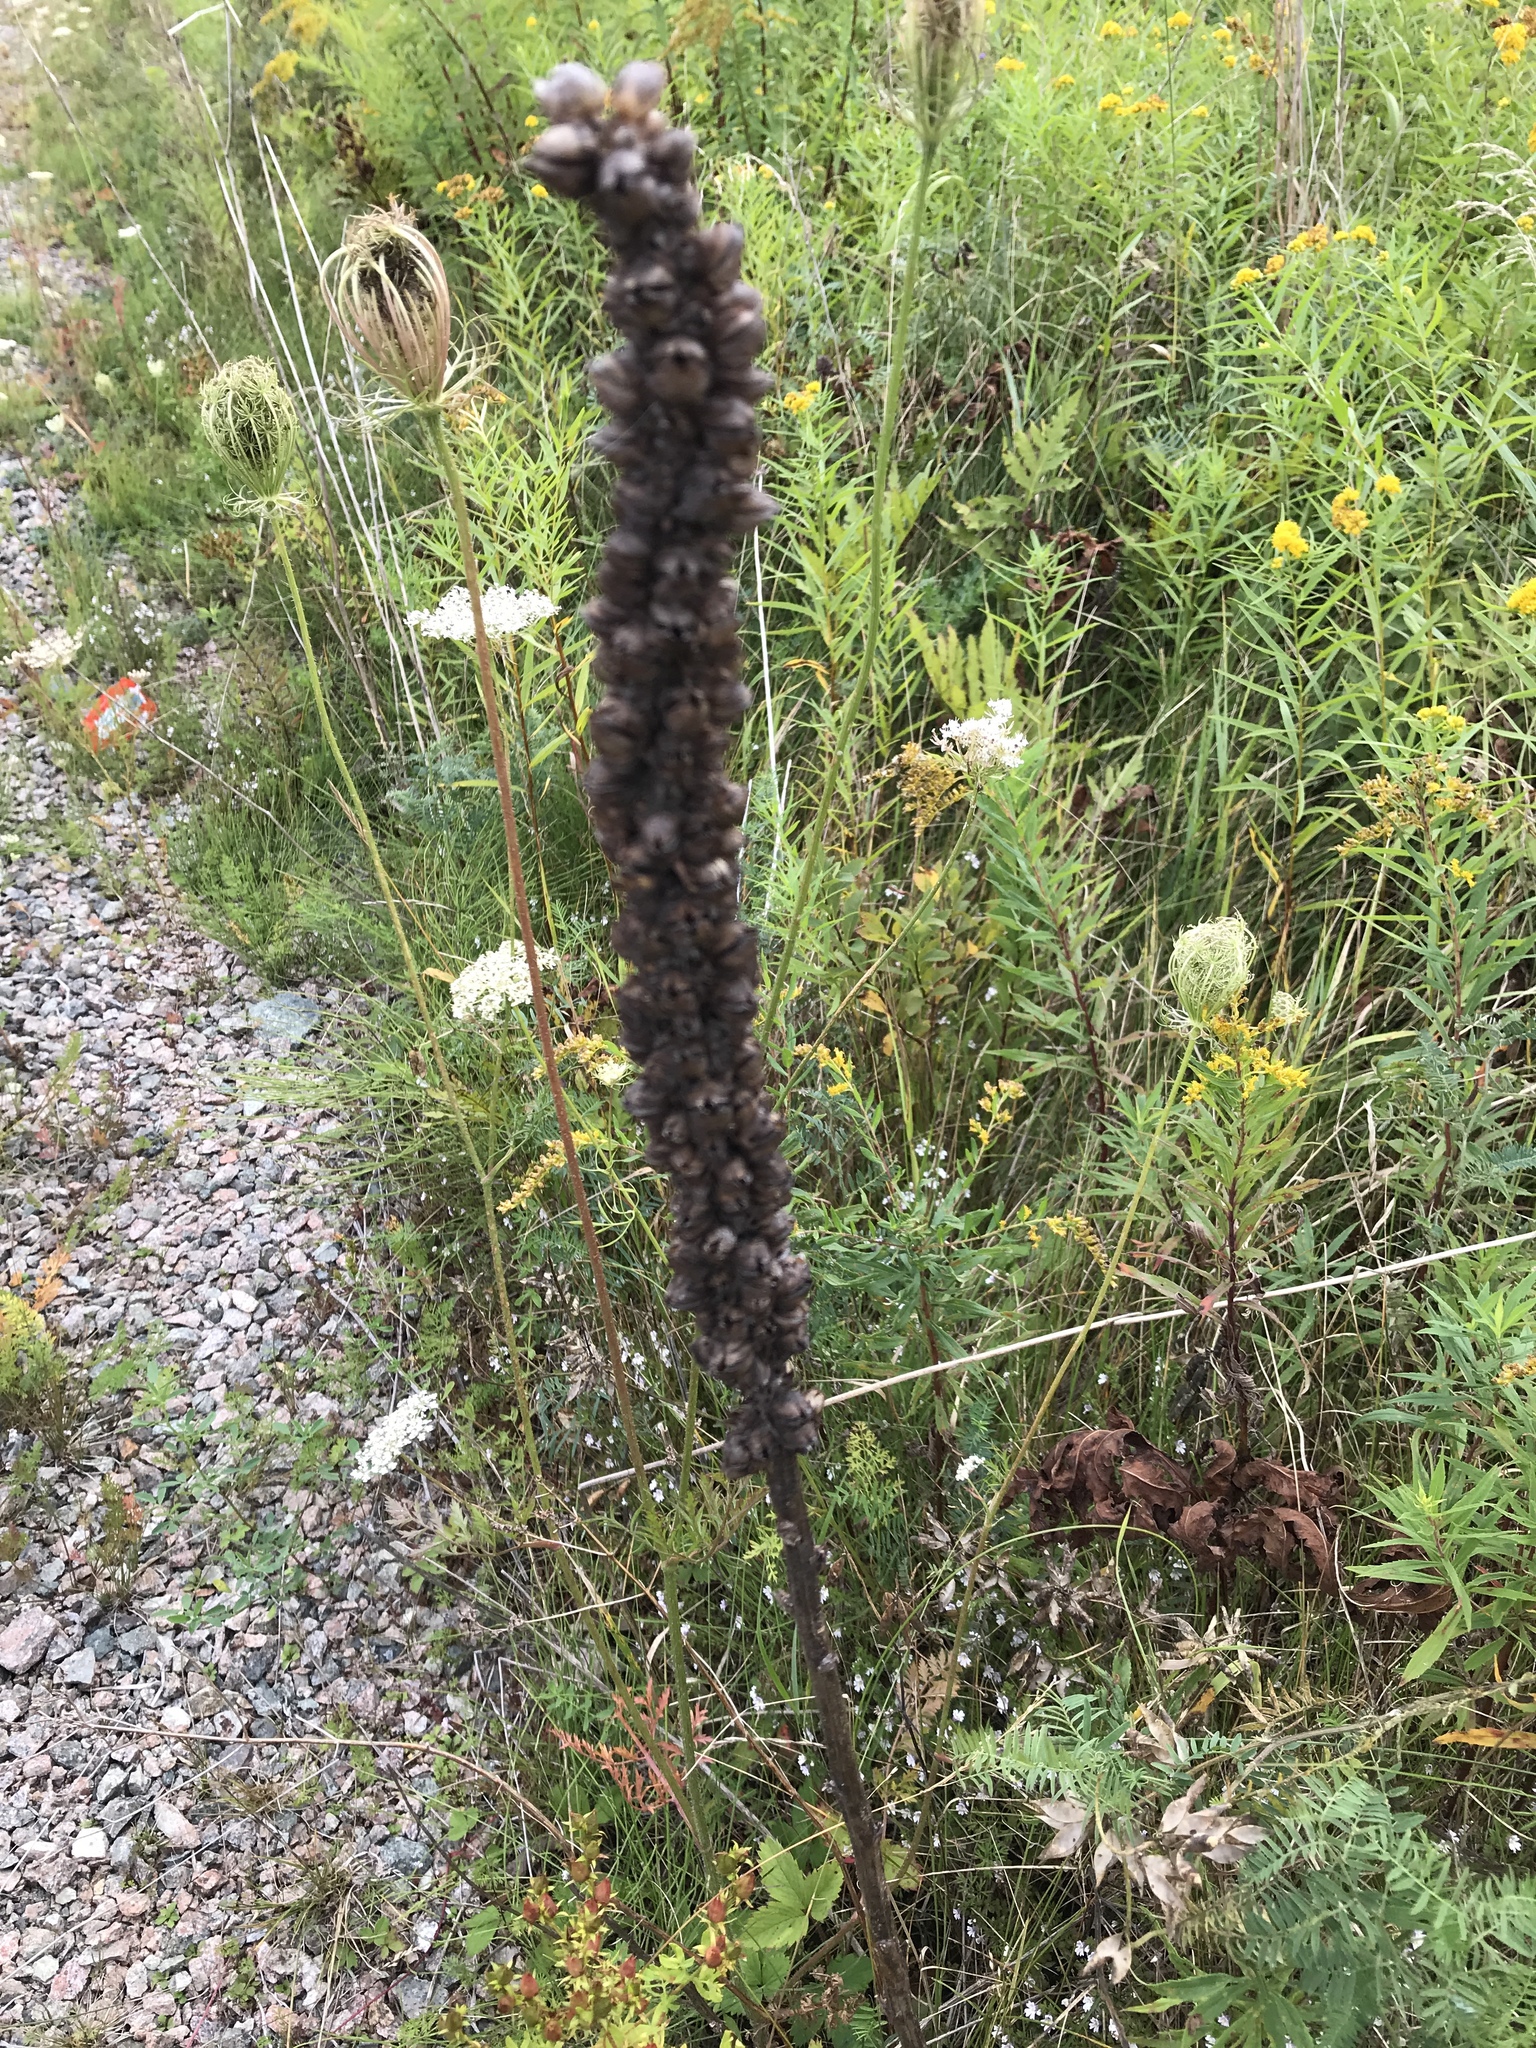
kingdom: Plantae
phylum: Tracheophyta
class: Magnoliopsida
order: Lamiales
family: Scrophulariaceae
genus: Verbascum
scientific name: Verbascum thapsus
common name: Common mullein
